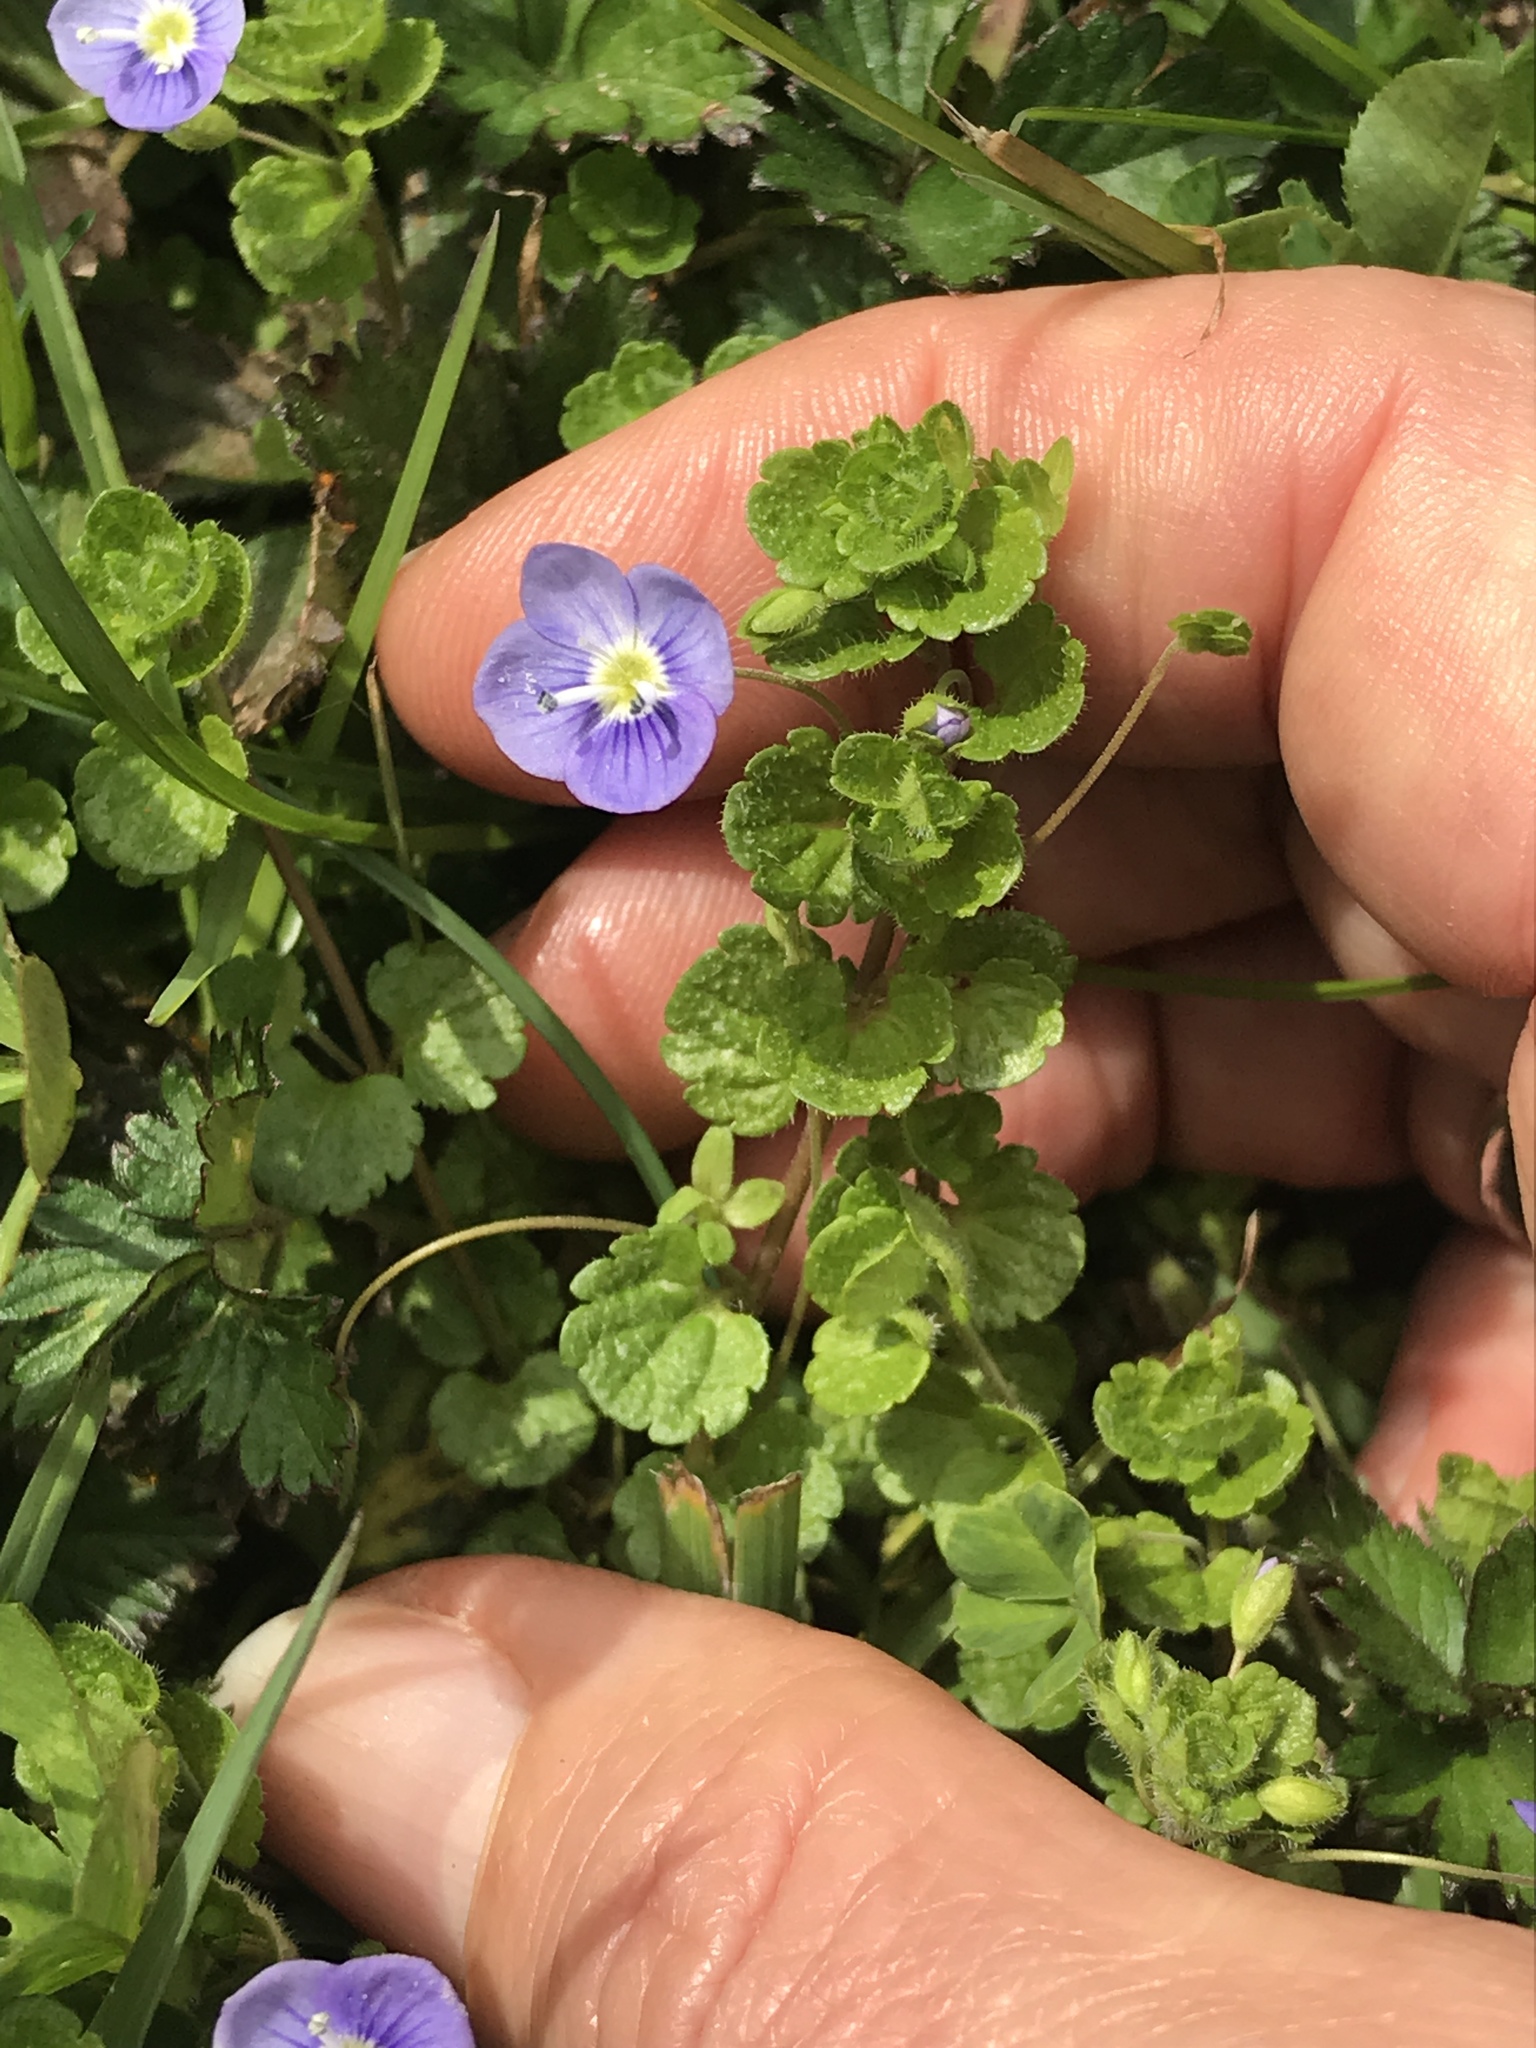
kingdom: Plantae
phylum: Tracheophyta
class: Magnoliopsida
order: Lamiales
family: Plantaginaceae
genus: Veronica
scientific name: Veronica filiformis
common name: Slender speedwell
